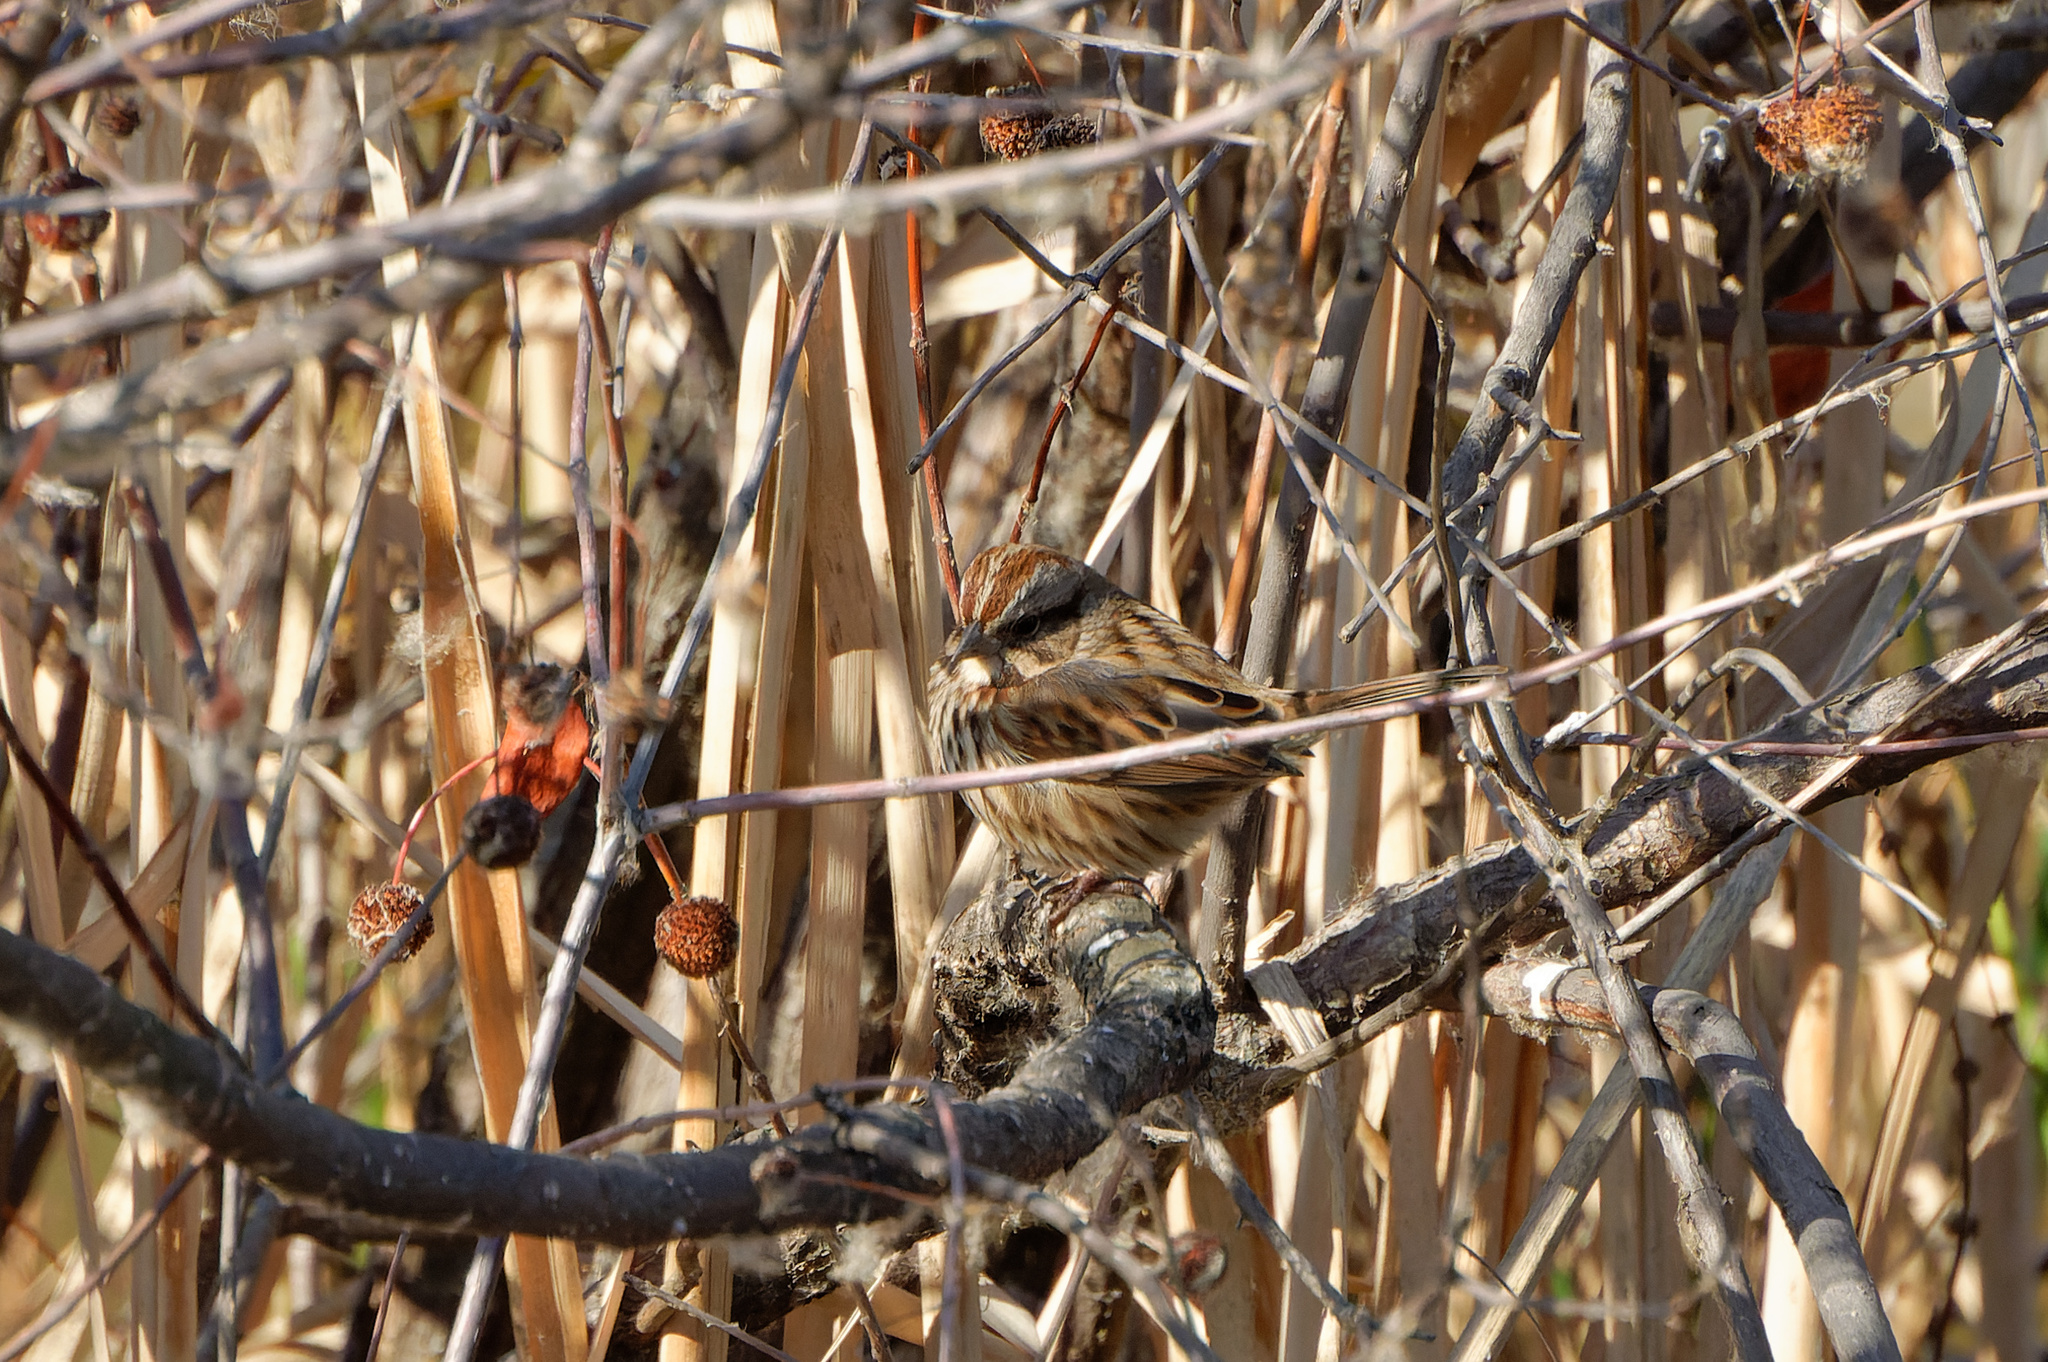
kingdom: Animalia
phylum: Chordata
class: Aves
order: Passeriformes
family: Passerellidae
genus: Melospiza
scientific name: Melospiza melodia
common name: Song sparrow
